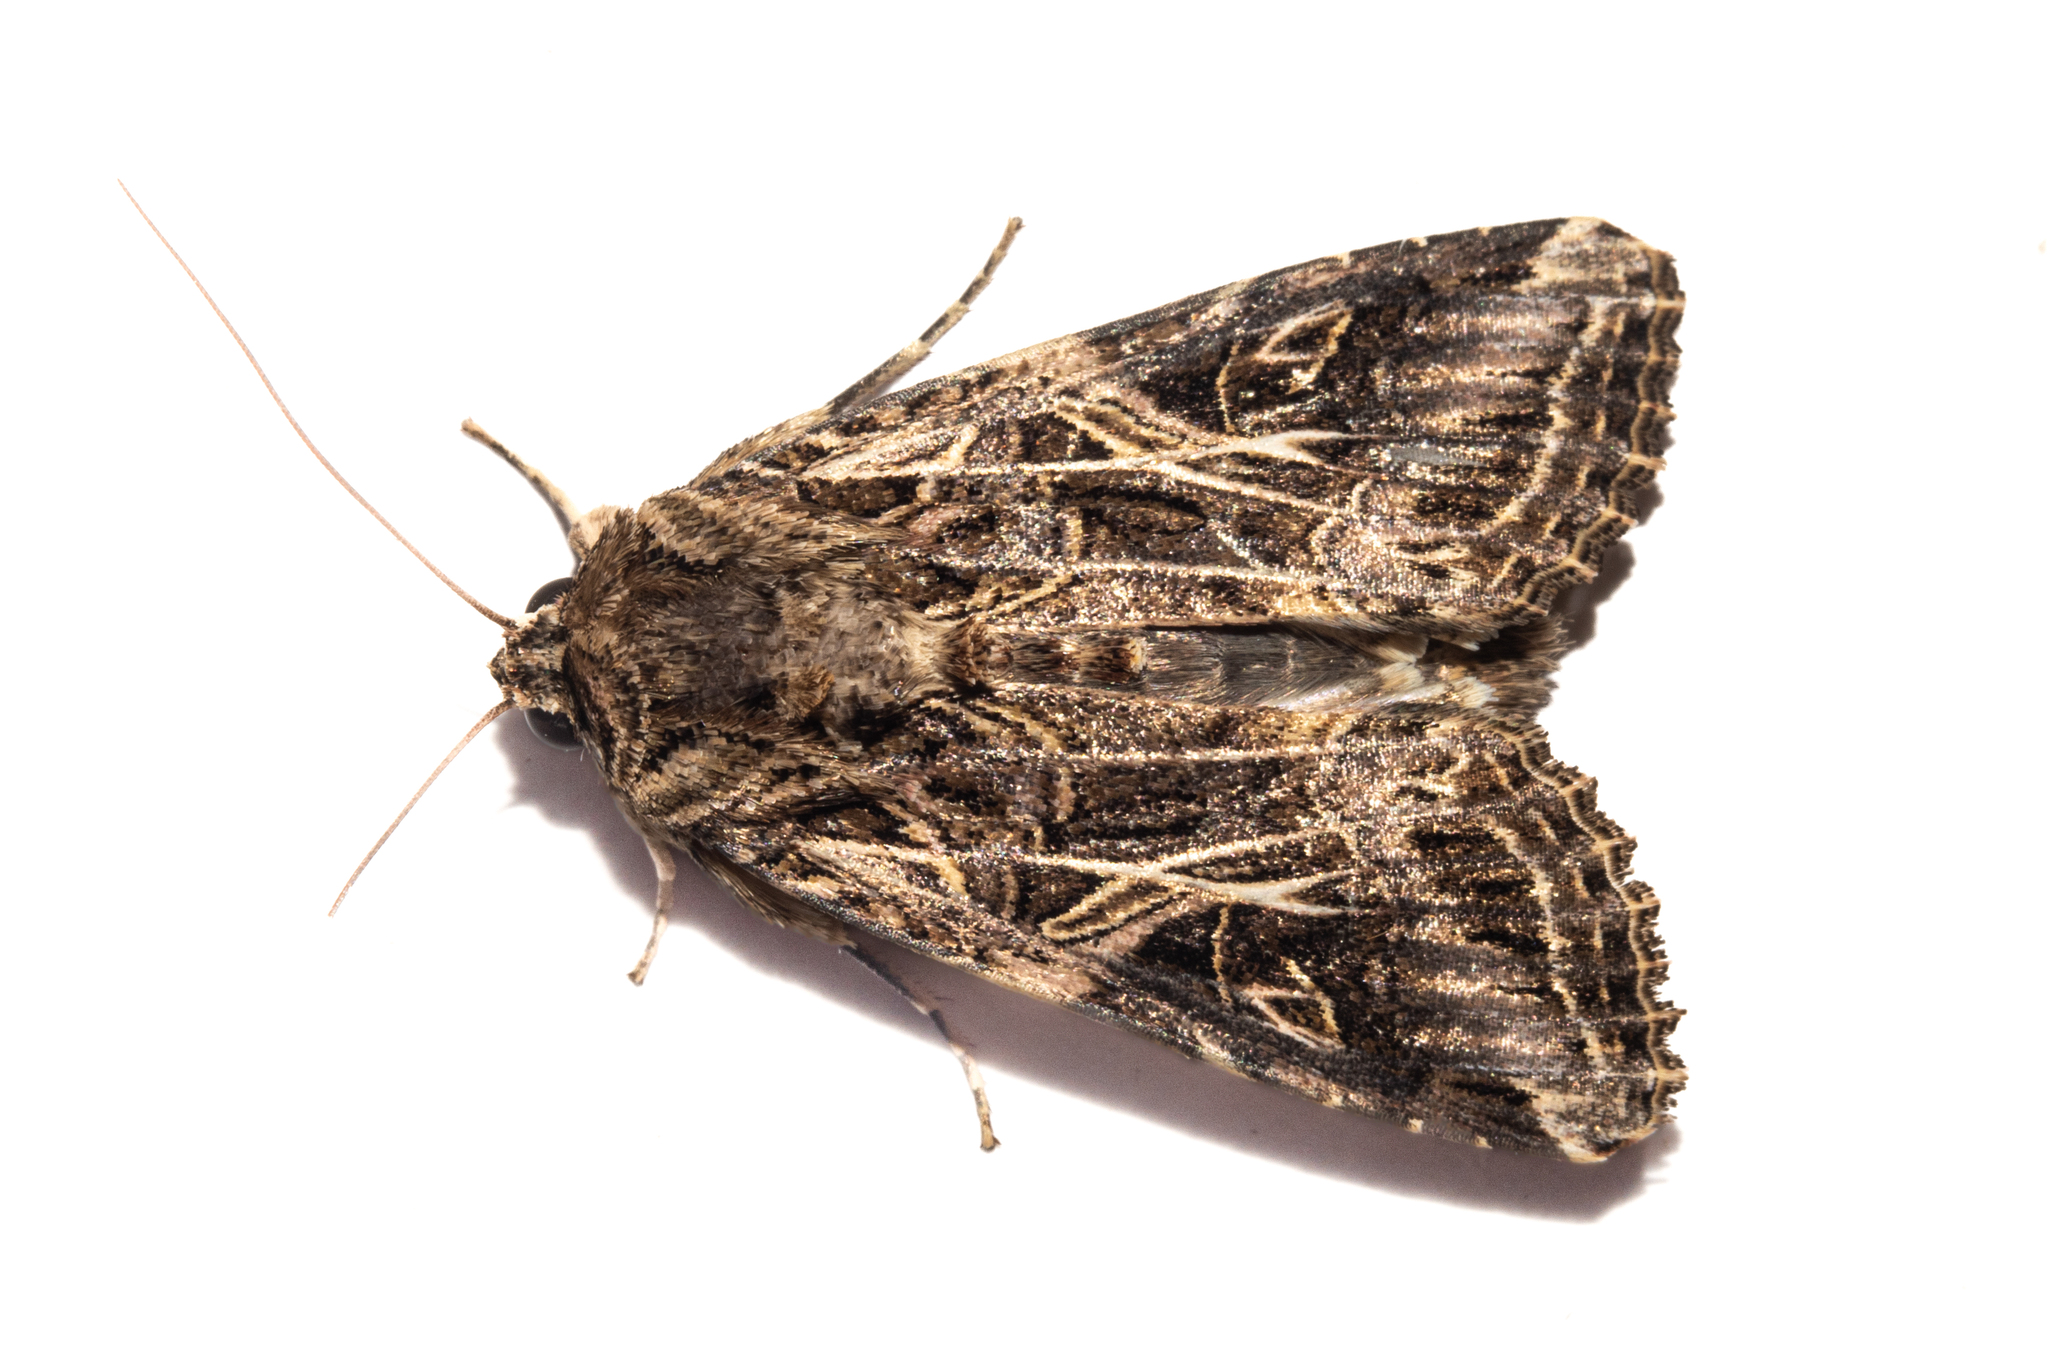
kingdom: Animalia
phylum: Arthropoda
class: Insecta
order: Lepidoptera
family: Noctuidae
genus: Spodoptera
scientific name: Spodoptera litura
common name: Asian cotton leafworm
